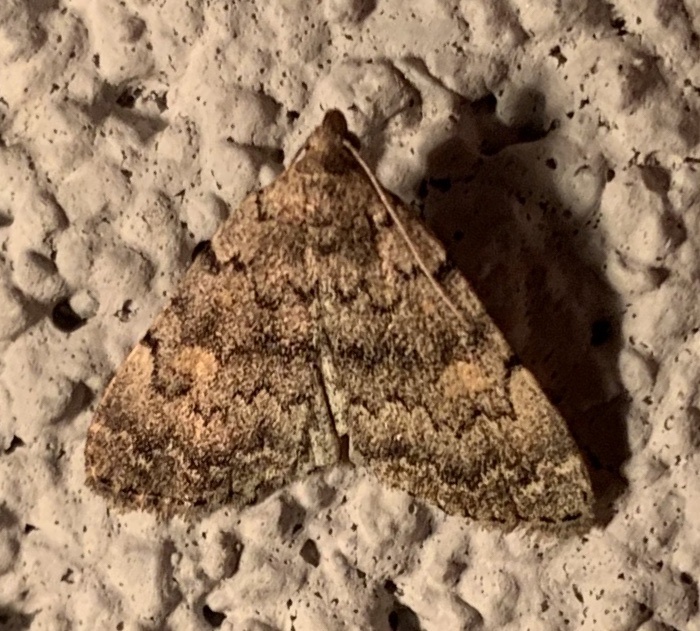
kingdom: Animalia
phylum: Arthropoda
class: Insecta
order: Lepidoptera
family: Erebidae
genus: Idia
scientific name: Idia aemula
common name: Common idia moth
